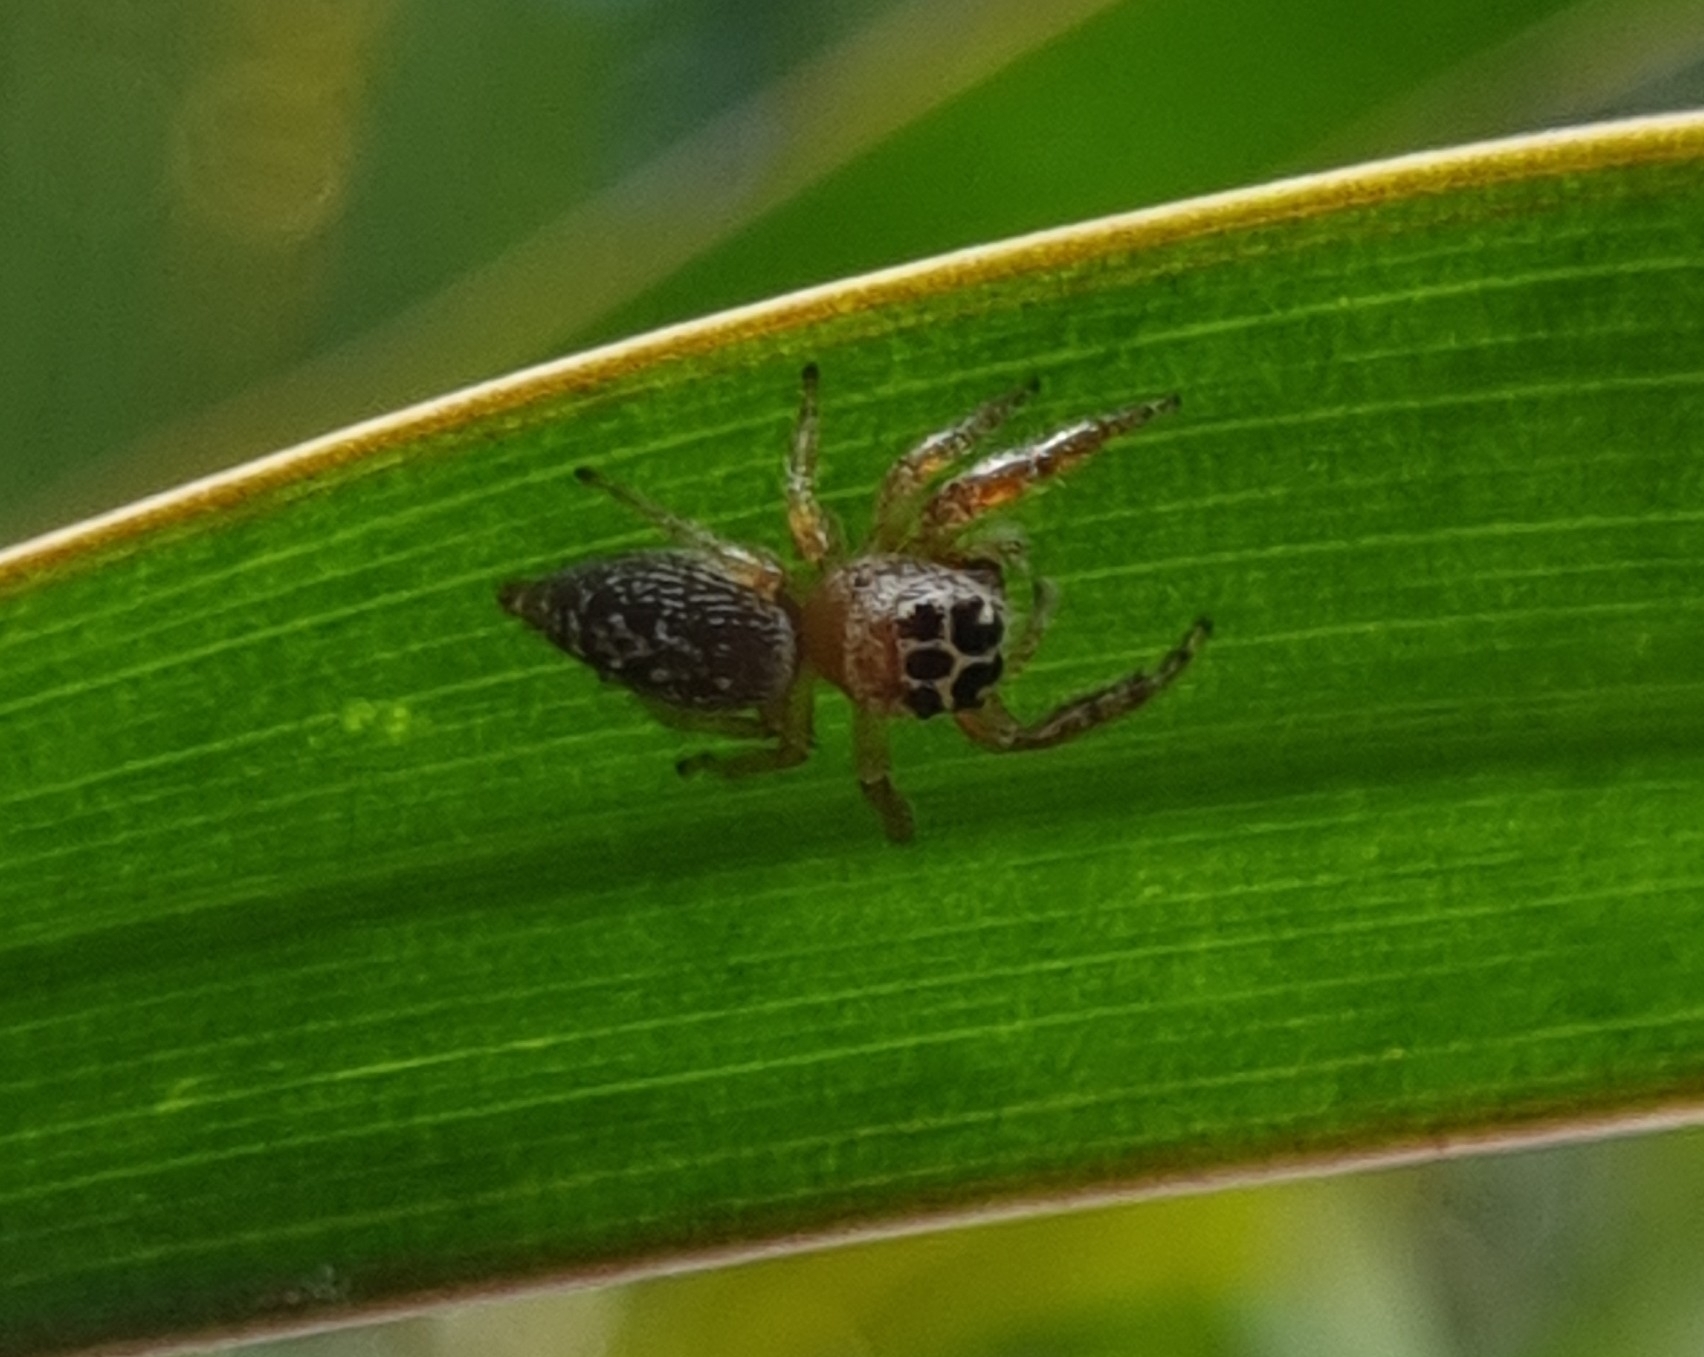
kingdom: Animalia
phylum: Arthropoda
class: Arachnida
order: Araneae
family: Salticidae
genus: Opisthoncus
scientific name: Opisthoncus polyphemus
